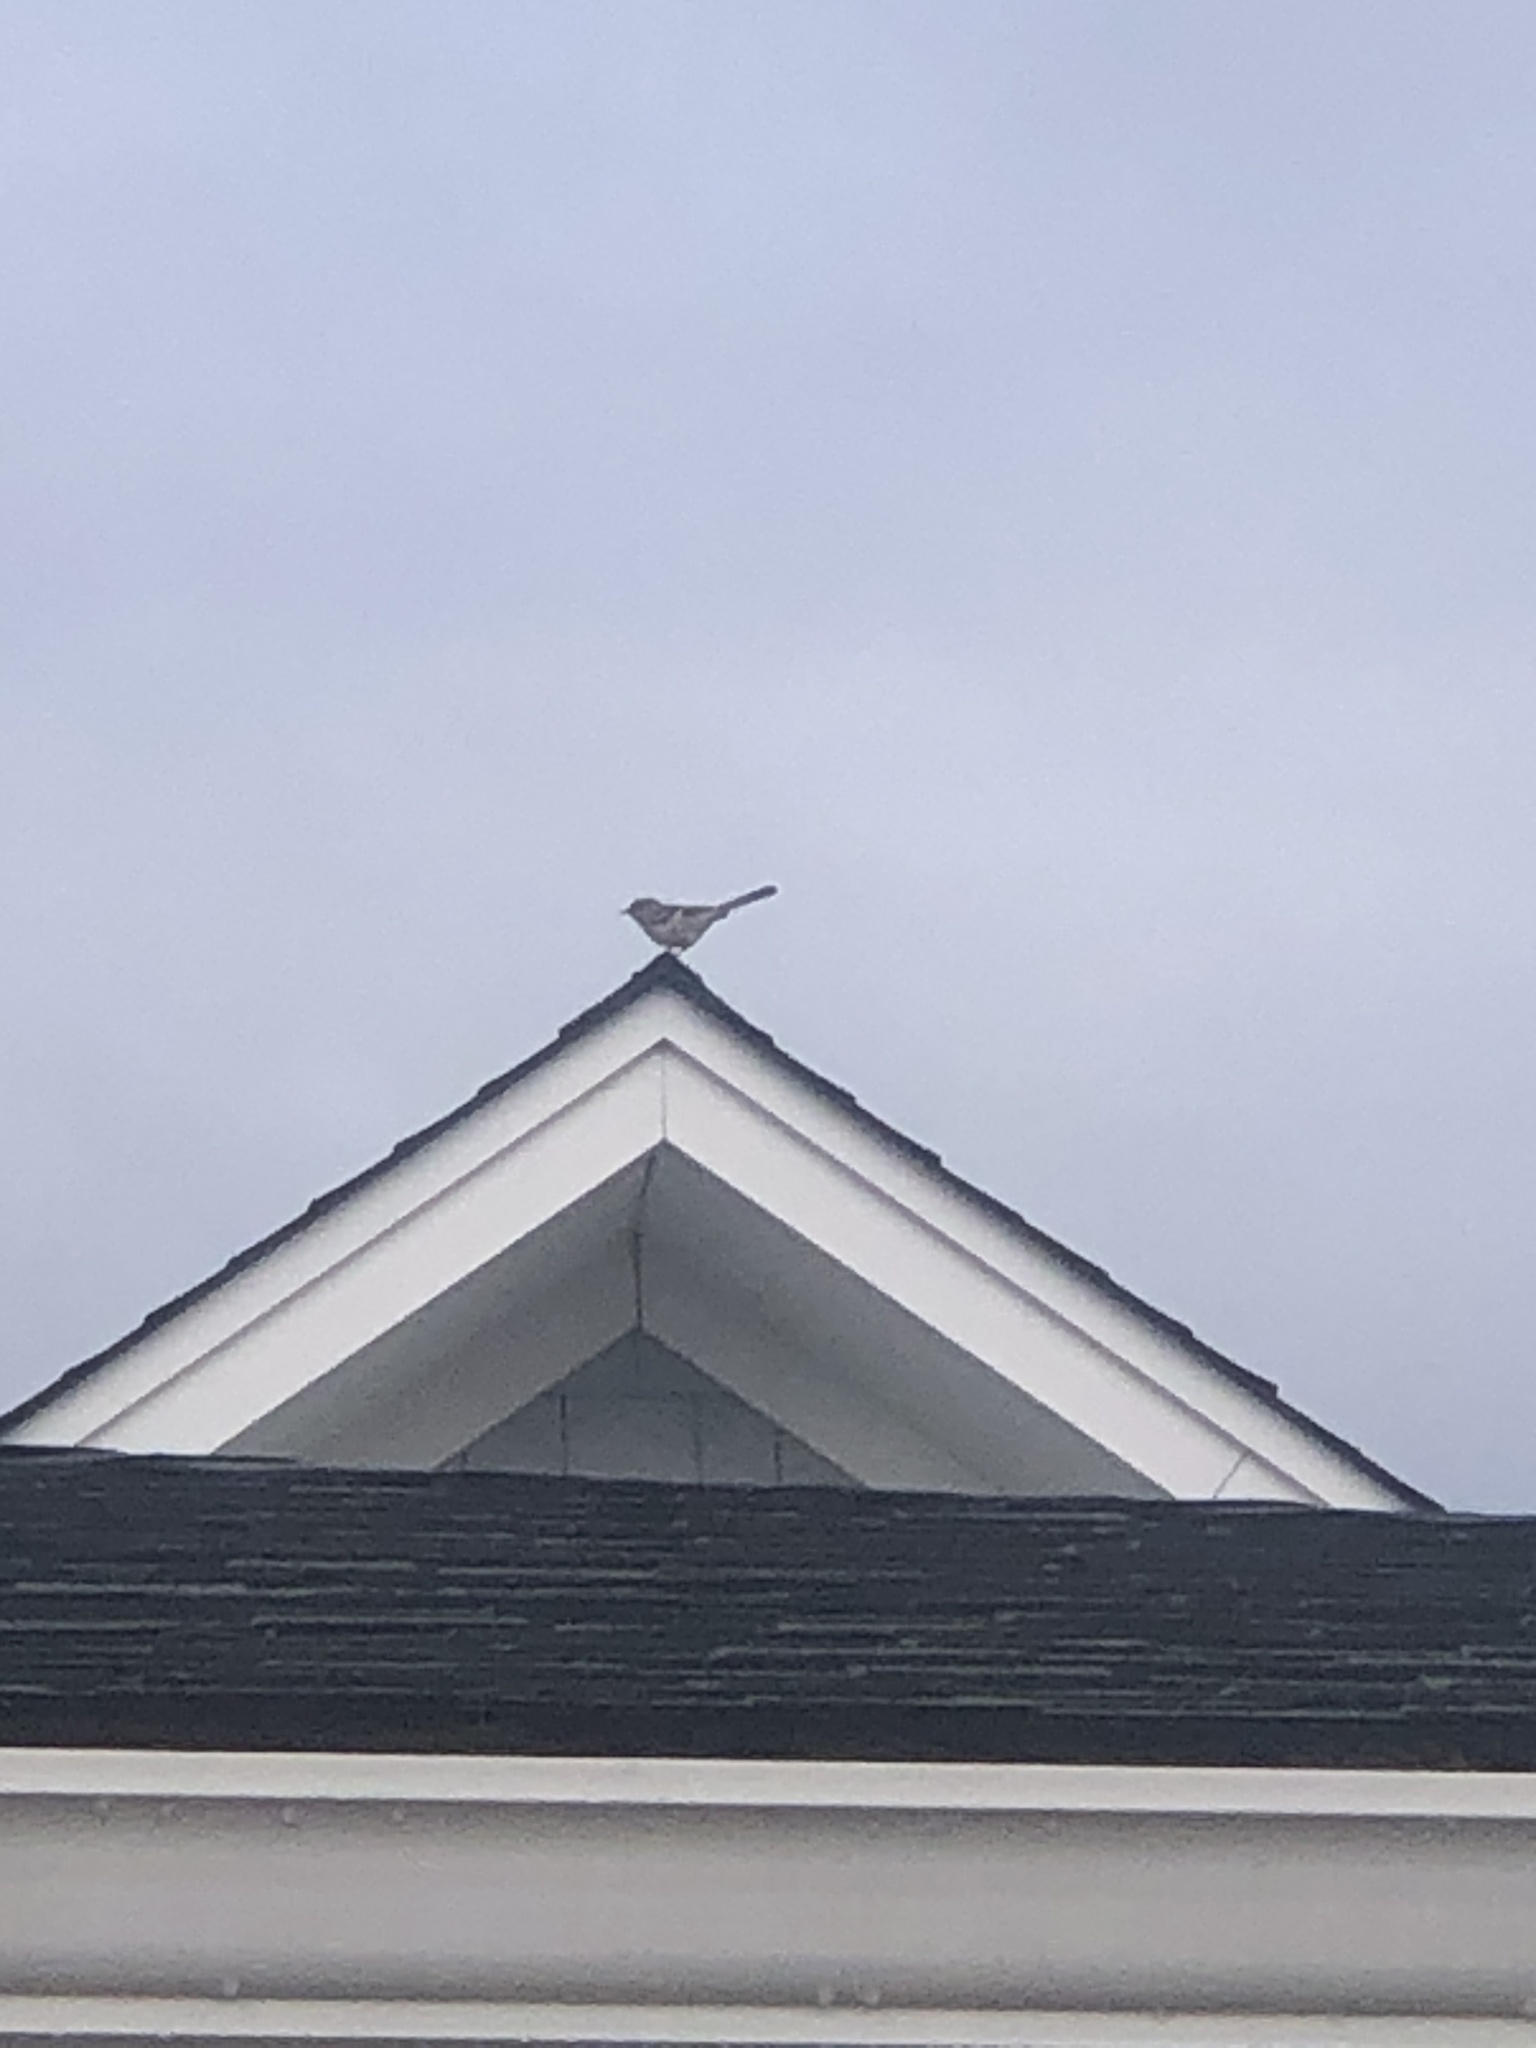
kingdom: Animalia
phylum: Chordata
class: Aves
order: Passeriformes
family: Mimidae
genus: Mimus
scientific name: Mimus polyglottos
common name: Northern mockingbird
